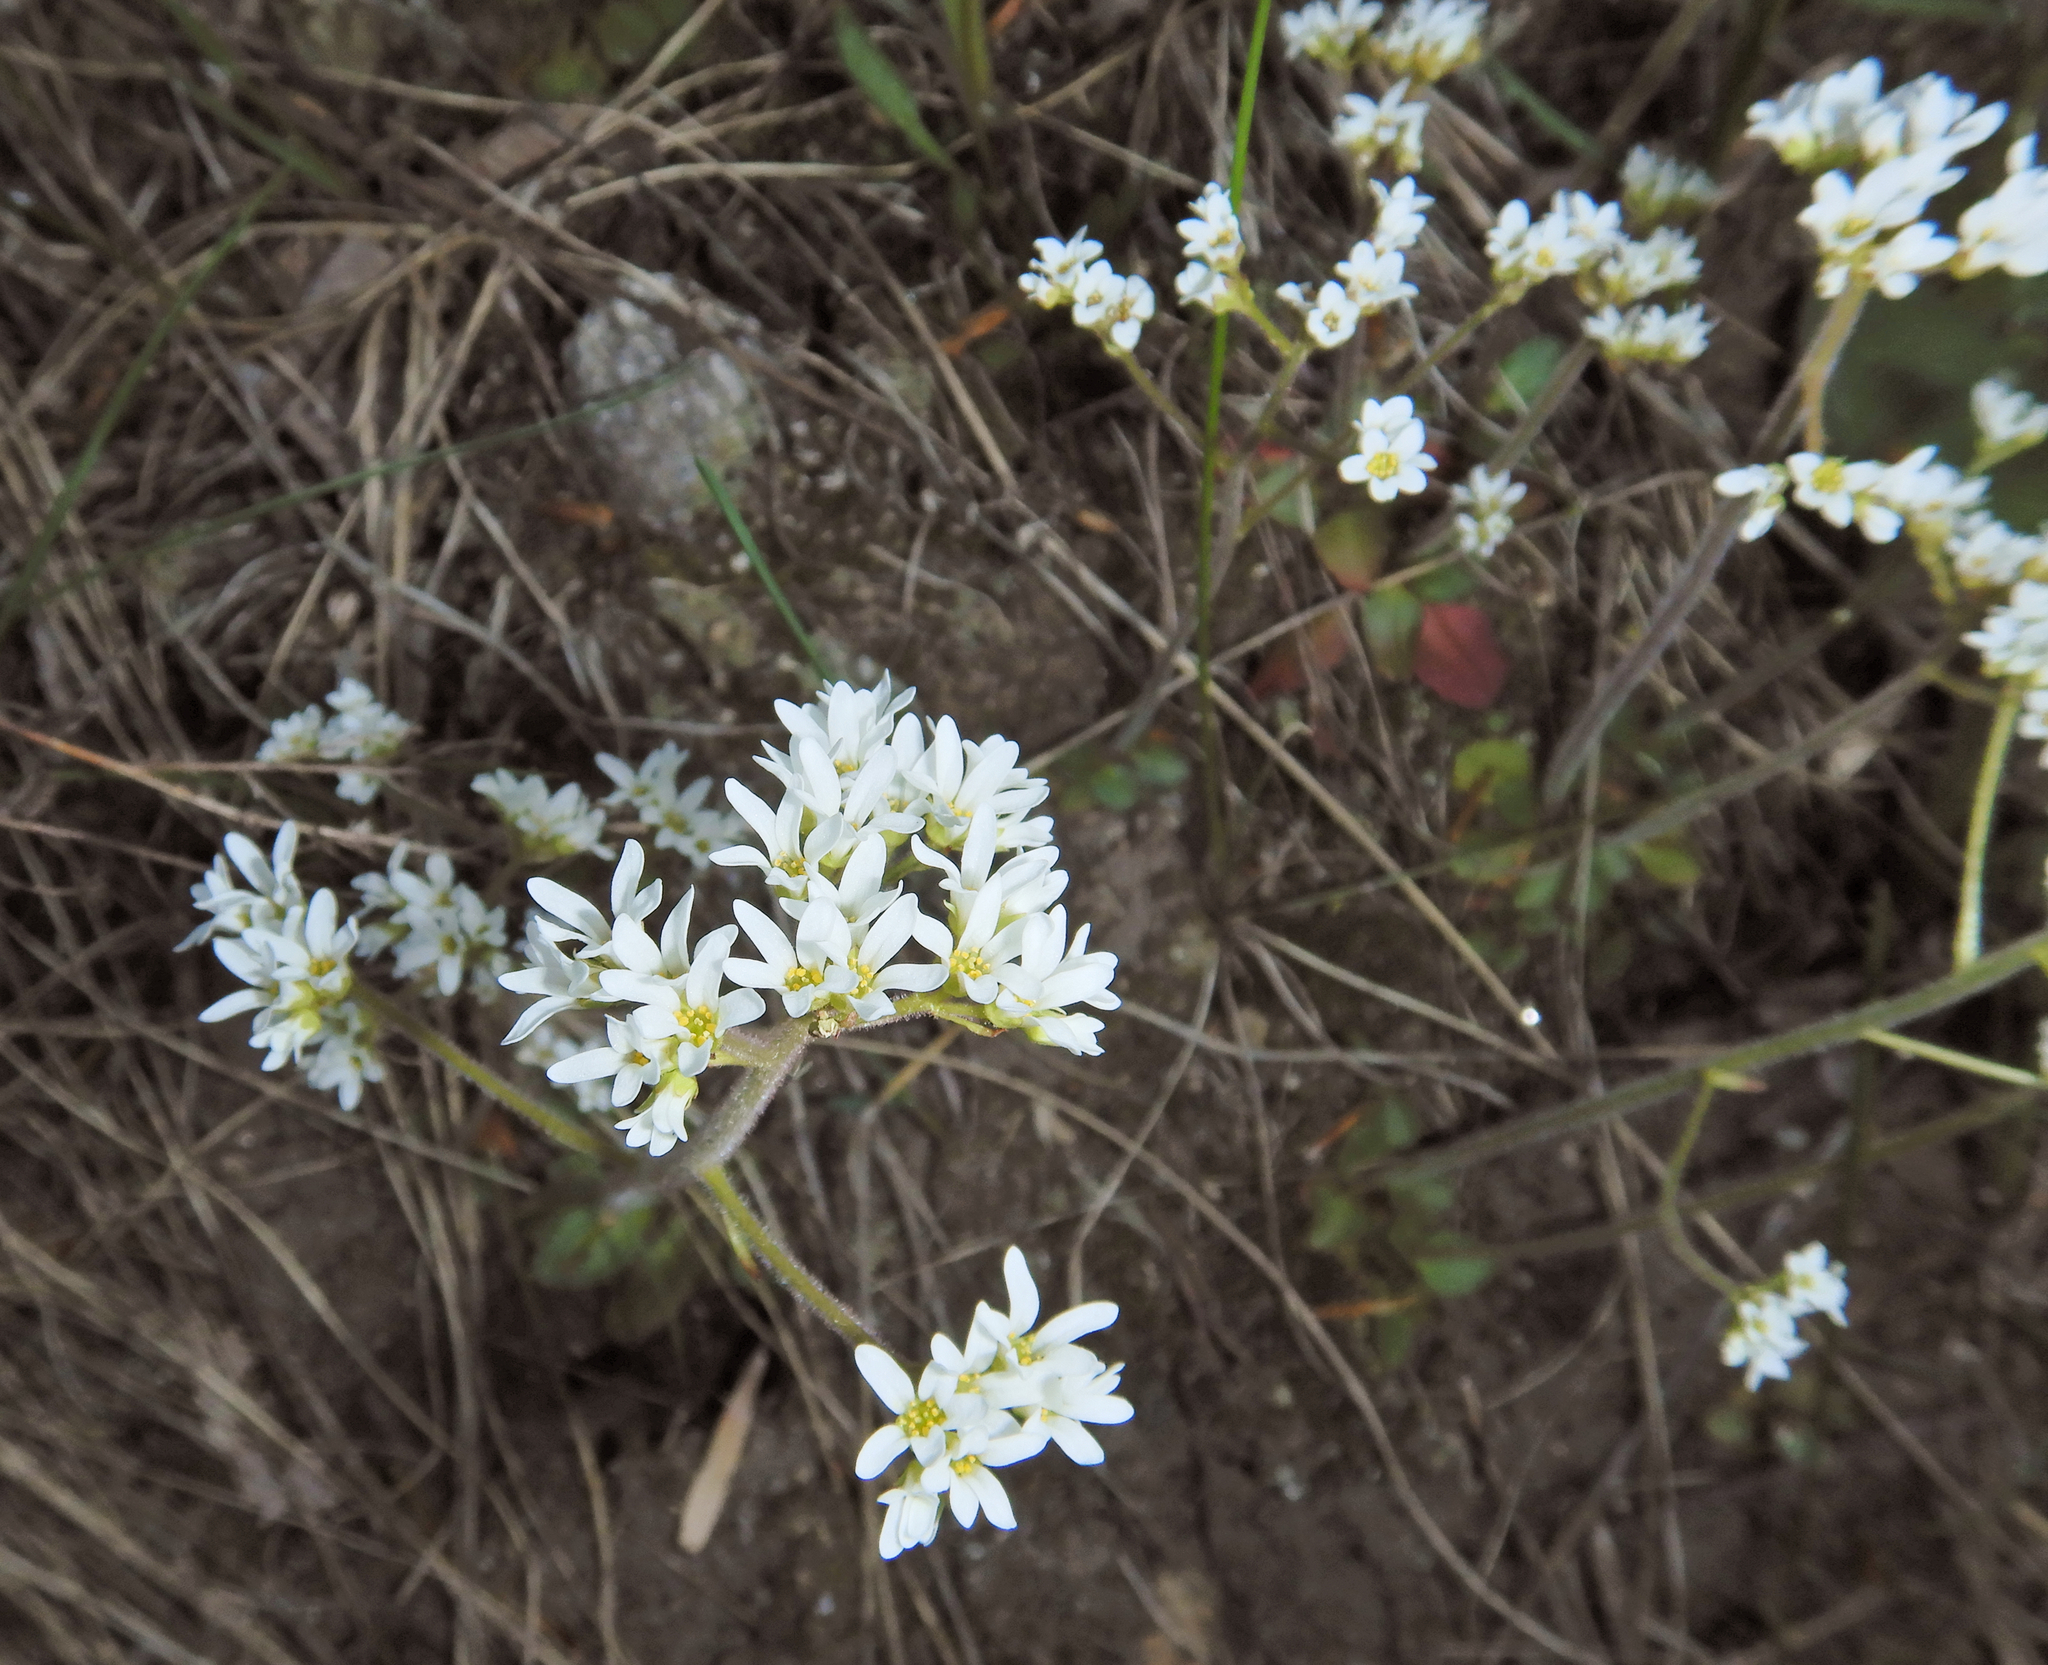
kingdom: Plantae
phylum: Tracheophyta
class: Magnoliopsida
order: Saxifragales
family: Saxifragaceae
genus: Micranthes
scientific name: Micranthes virginiensis
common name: Early saxifrage
